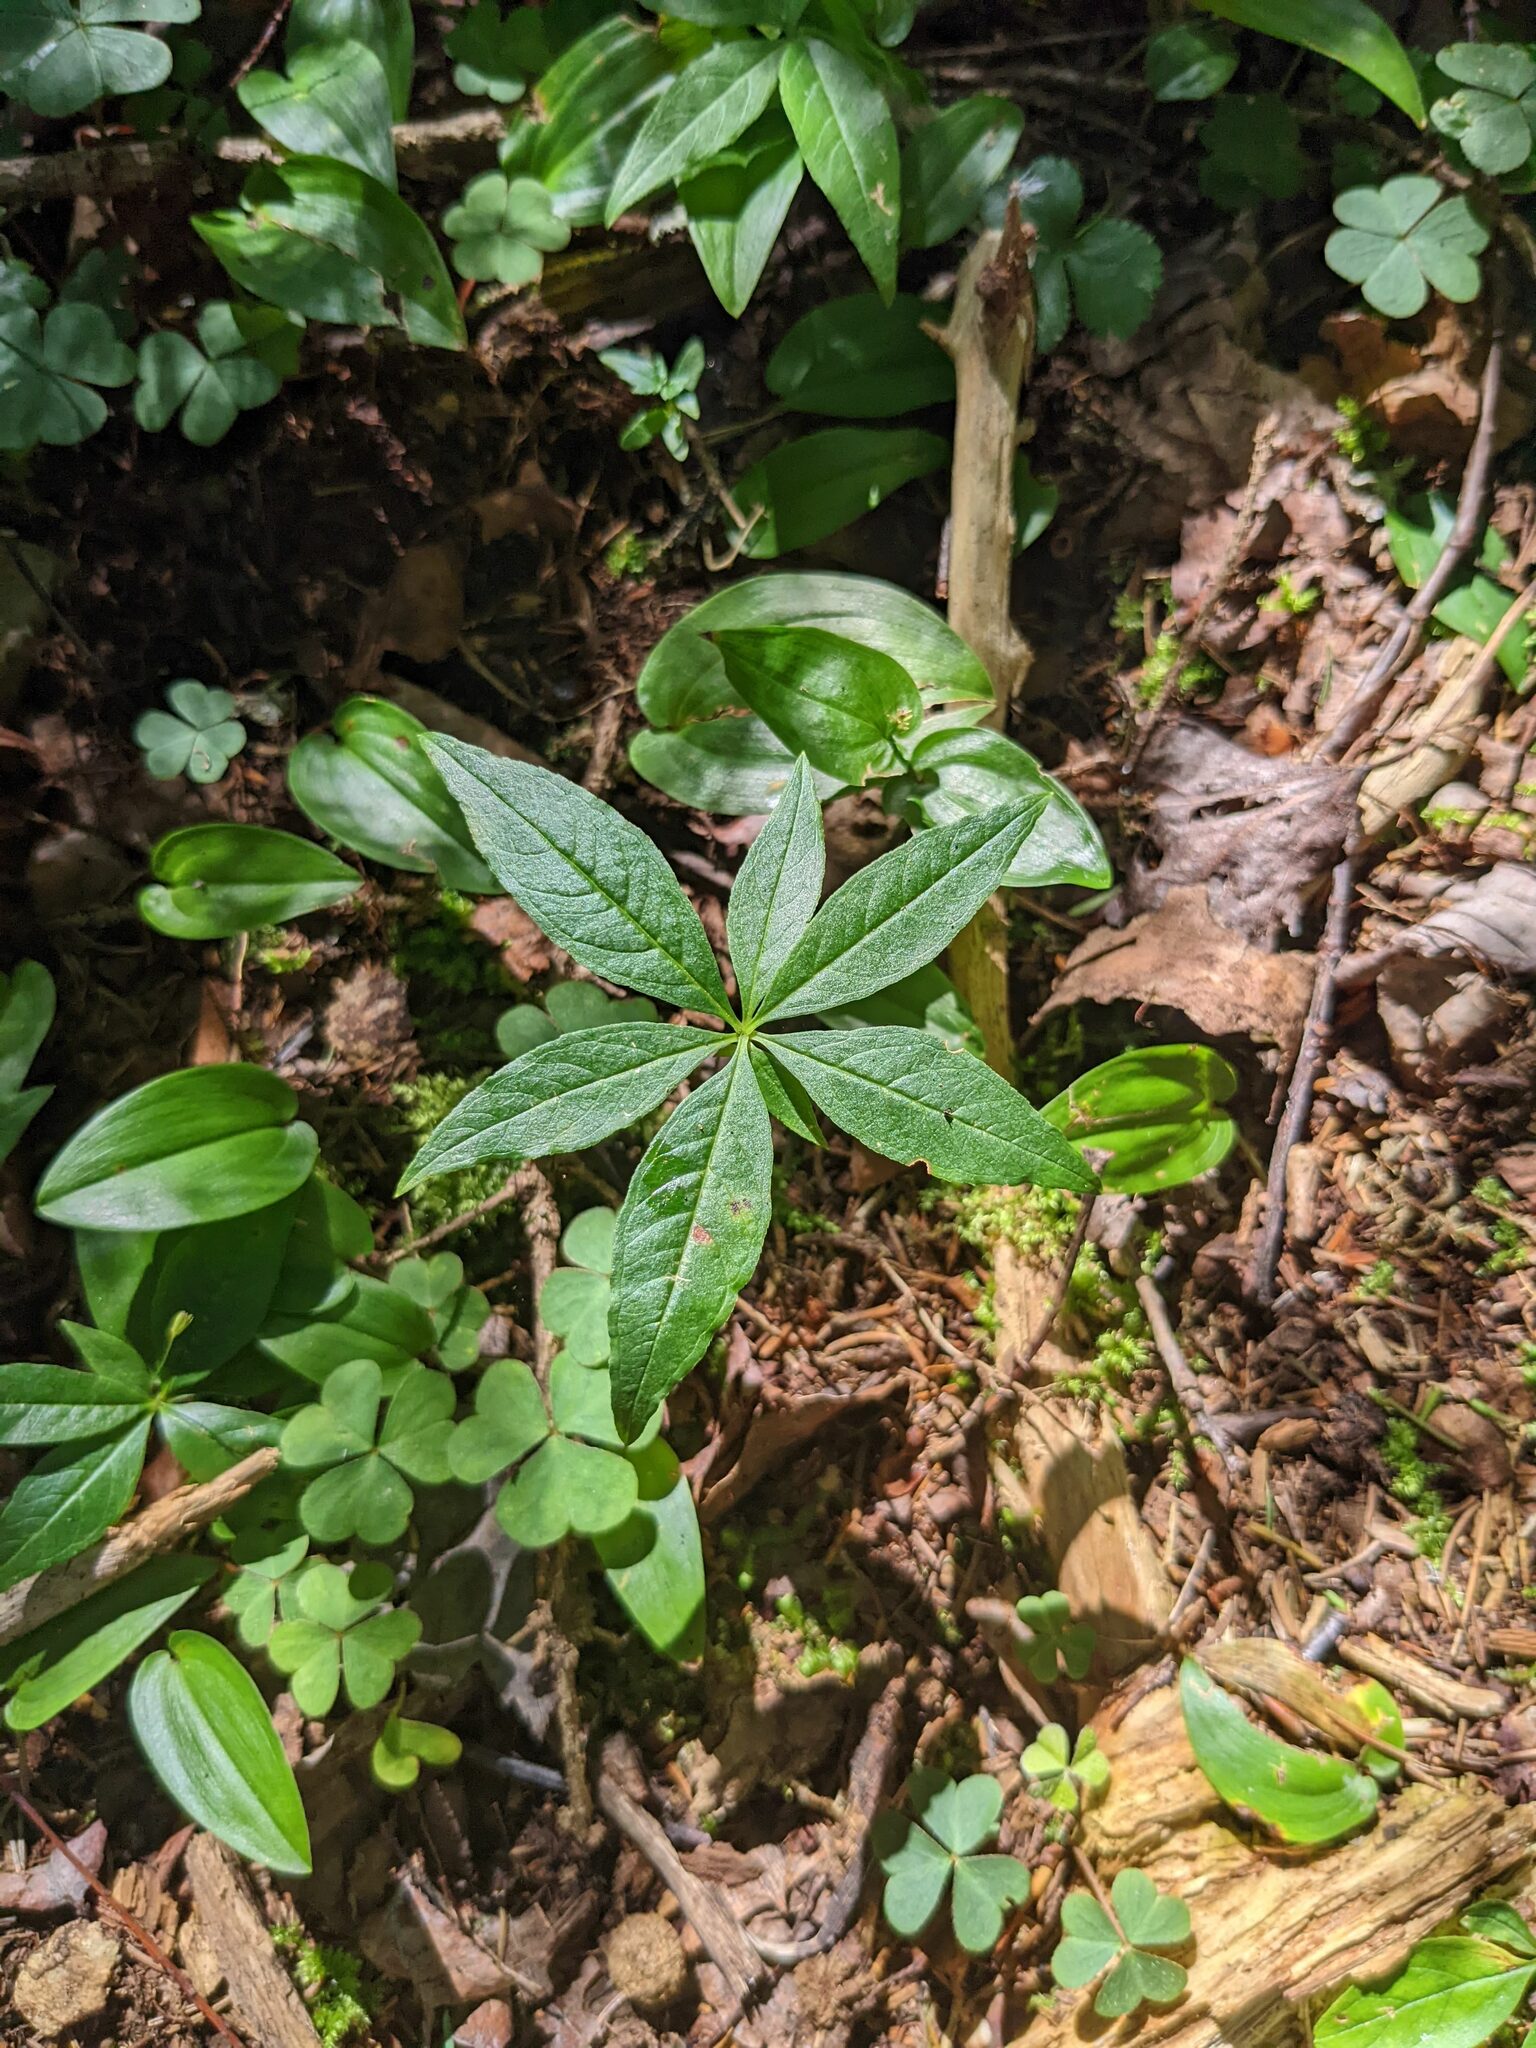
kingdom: Plantae
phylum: Tracheophyta
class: Magnoliopsida
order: Ericales
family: Primulaceae
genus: Lysimachia
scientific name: Lysimachia borealis
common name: American starflower
